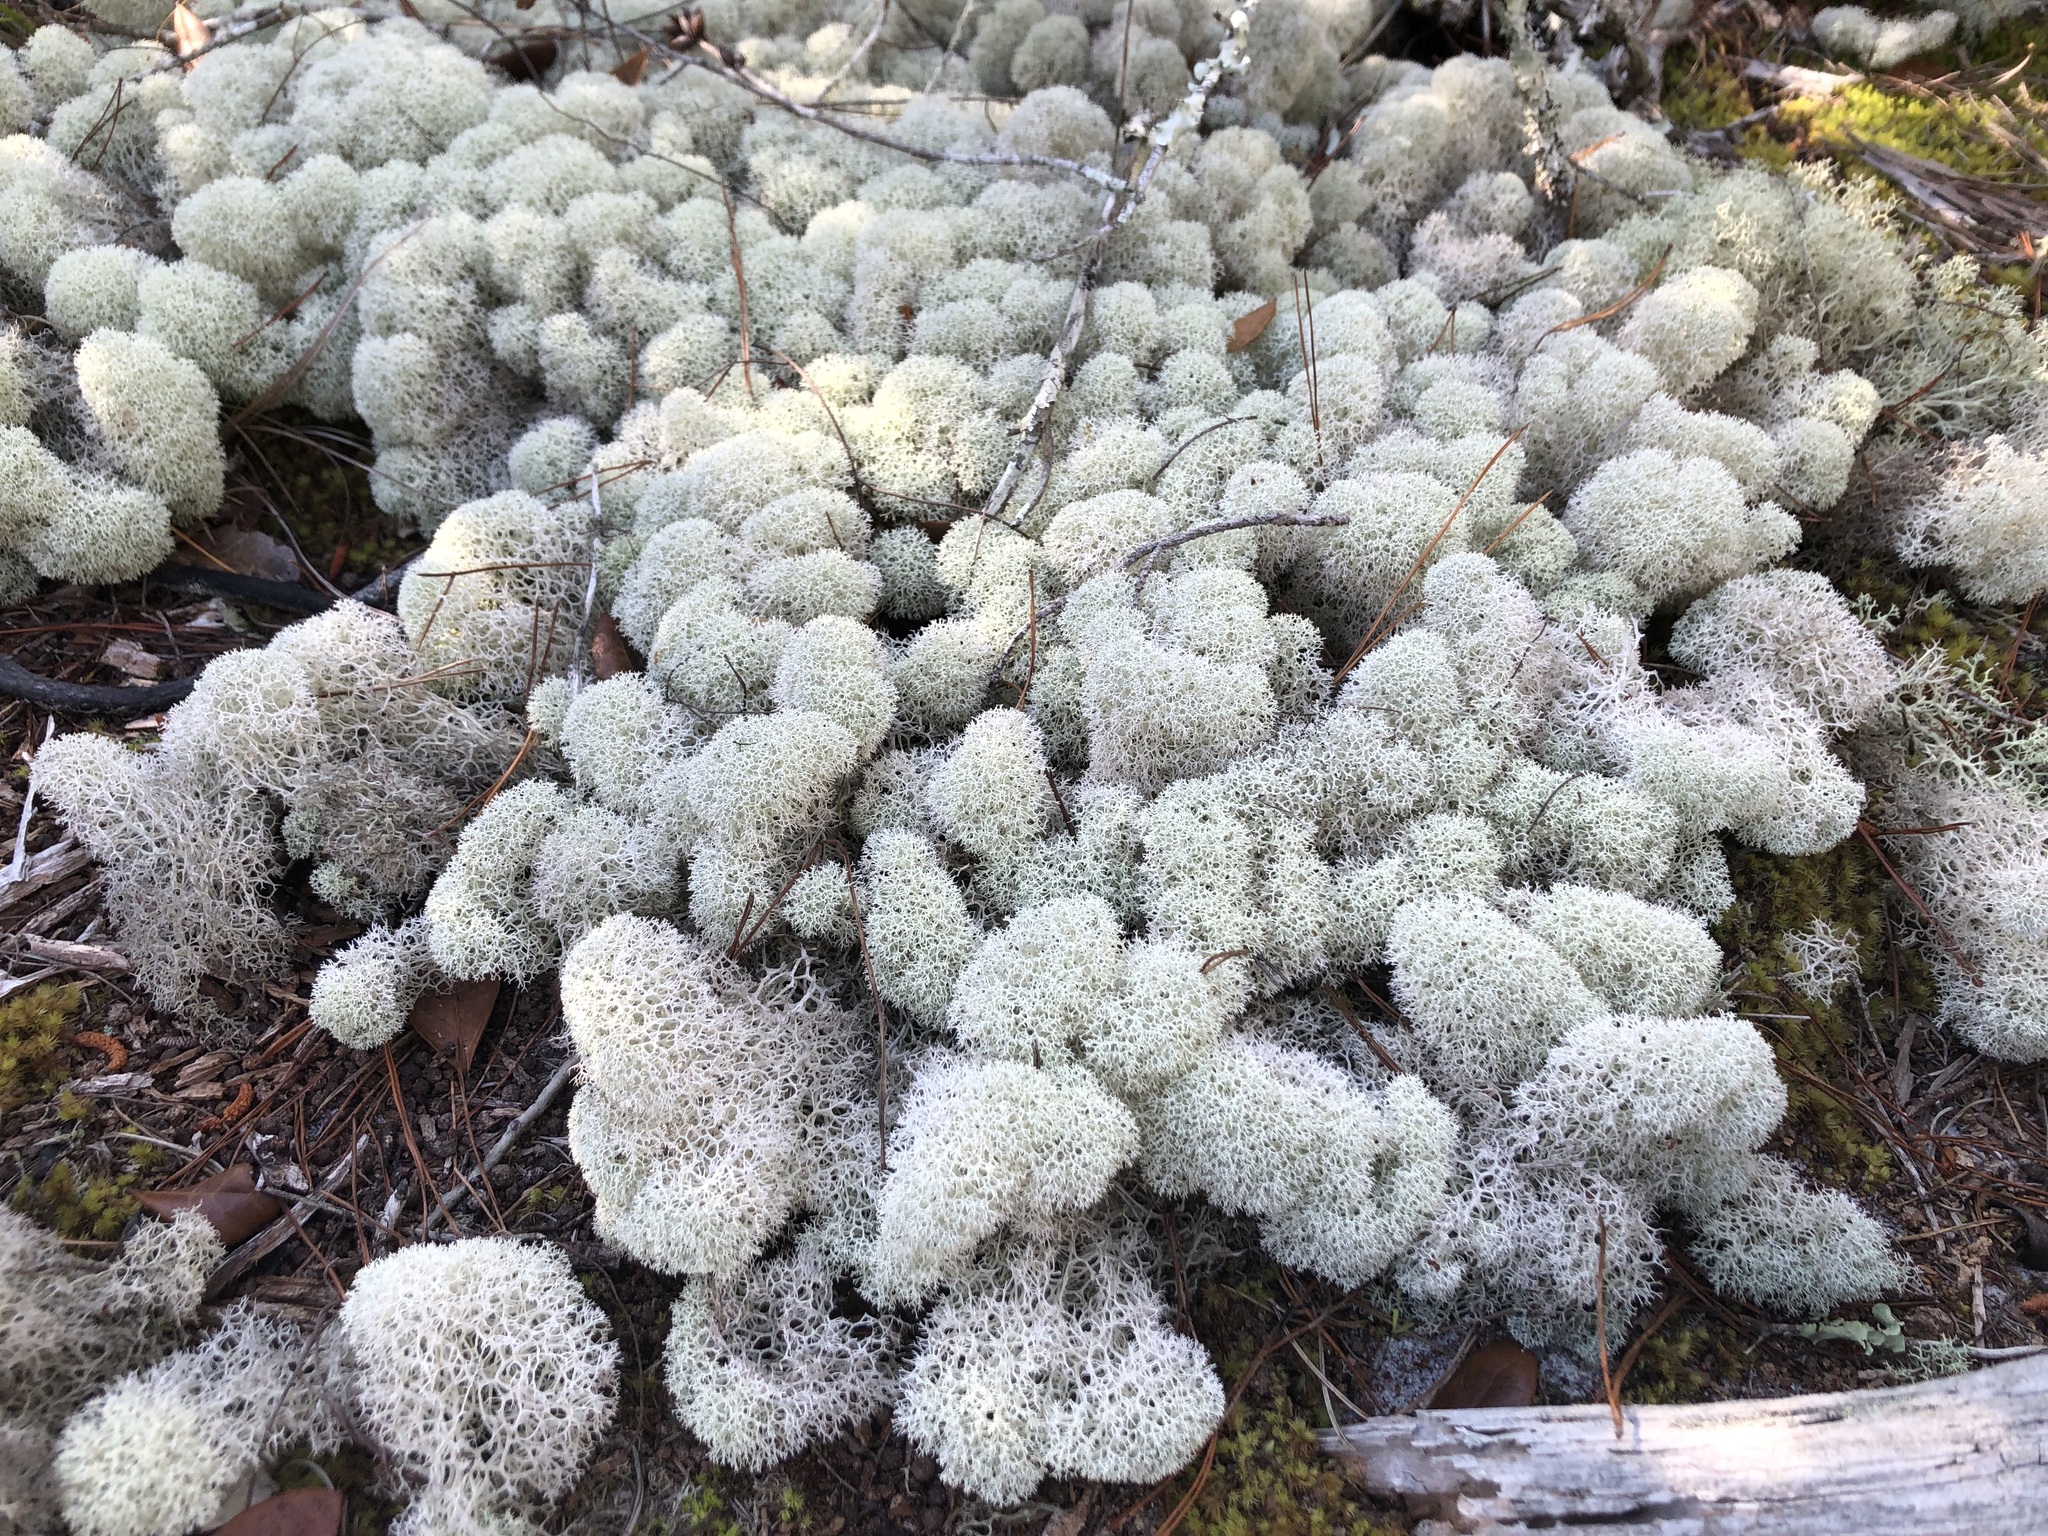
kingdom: Fungi
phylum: Ascomycota
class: Lecanoromycetes
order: Lecanorales
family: Cladoniaceae
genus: Cladonia
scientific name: Cladonia evansii
